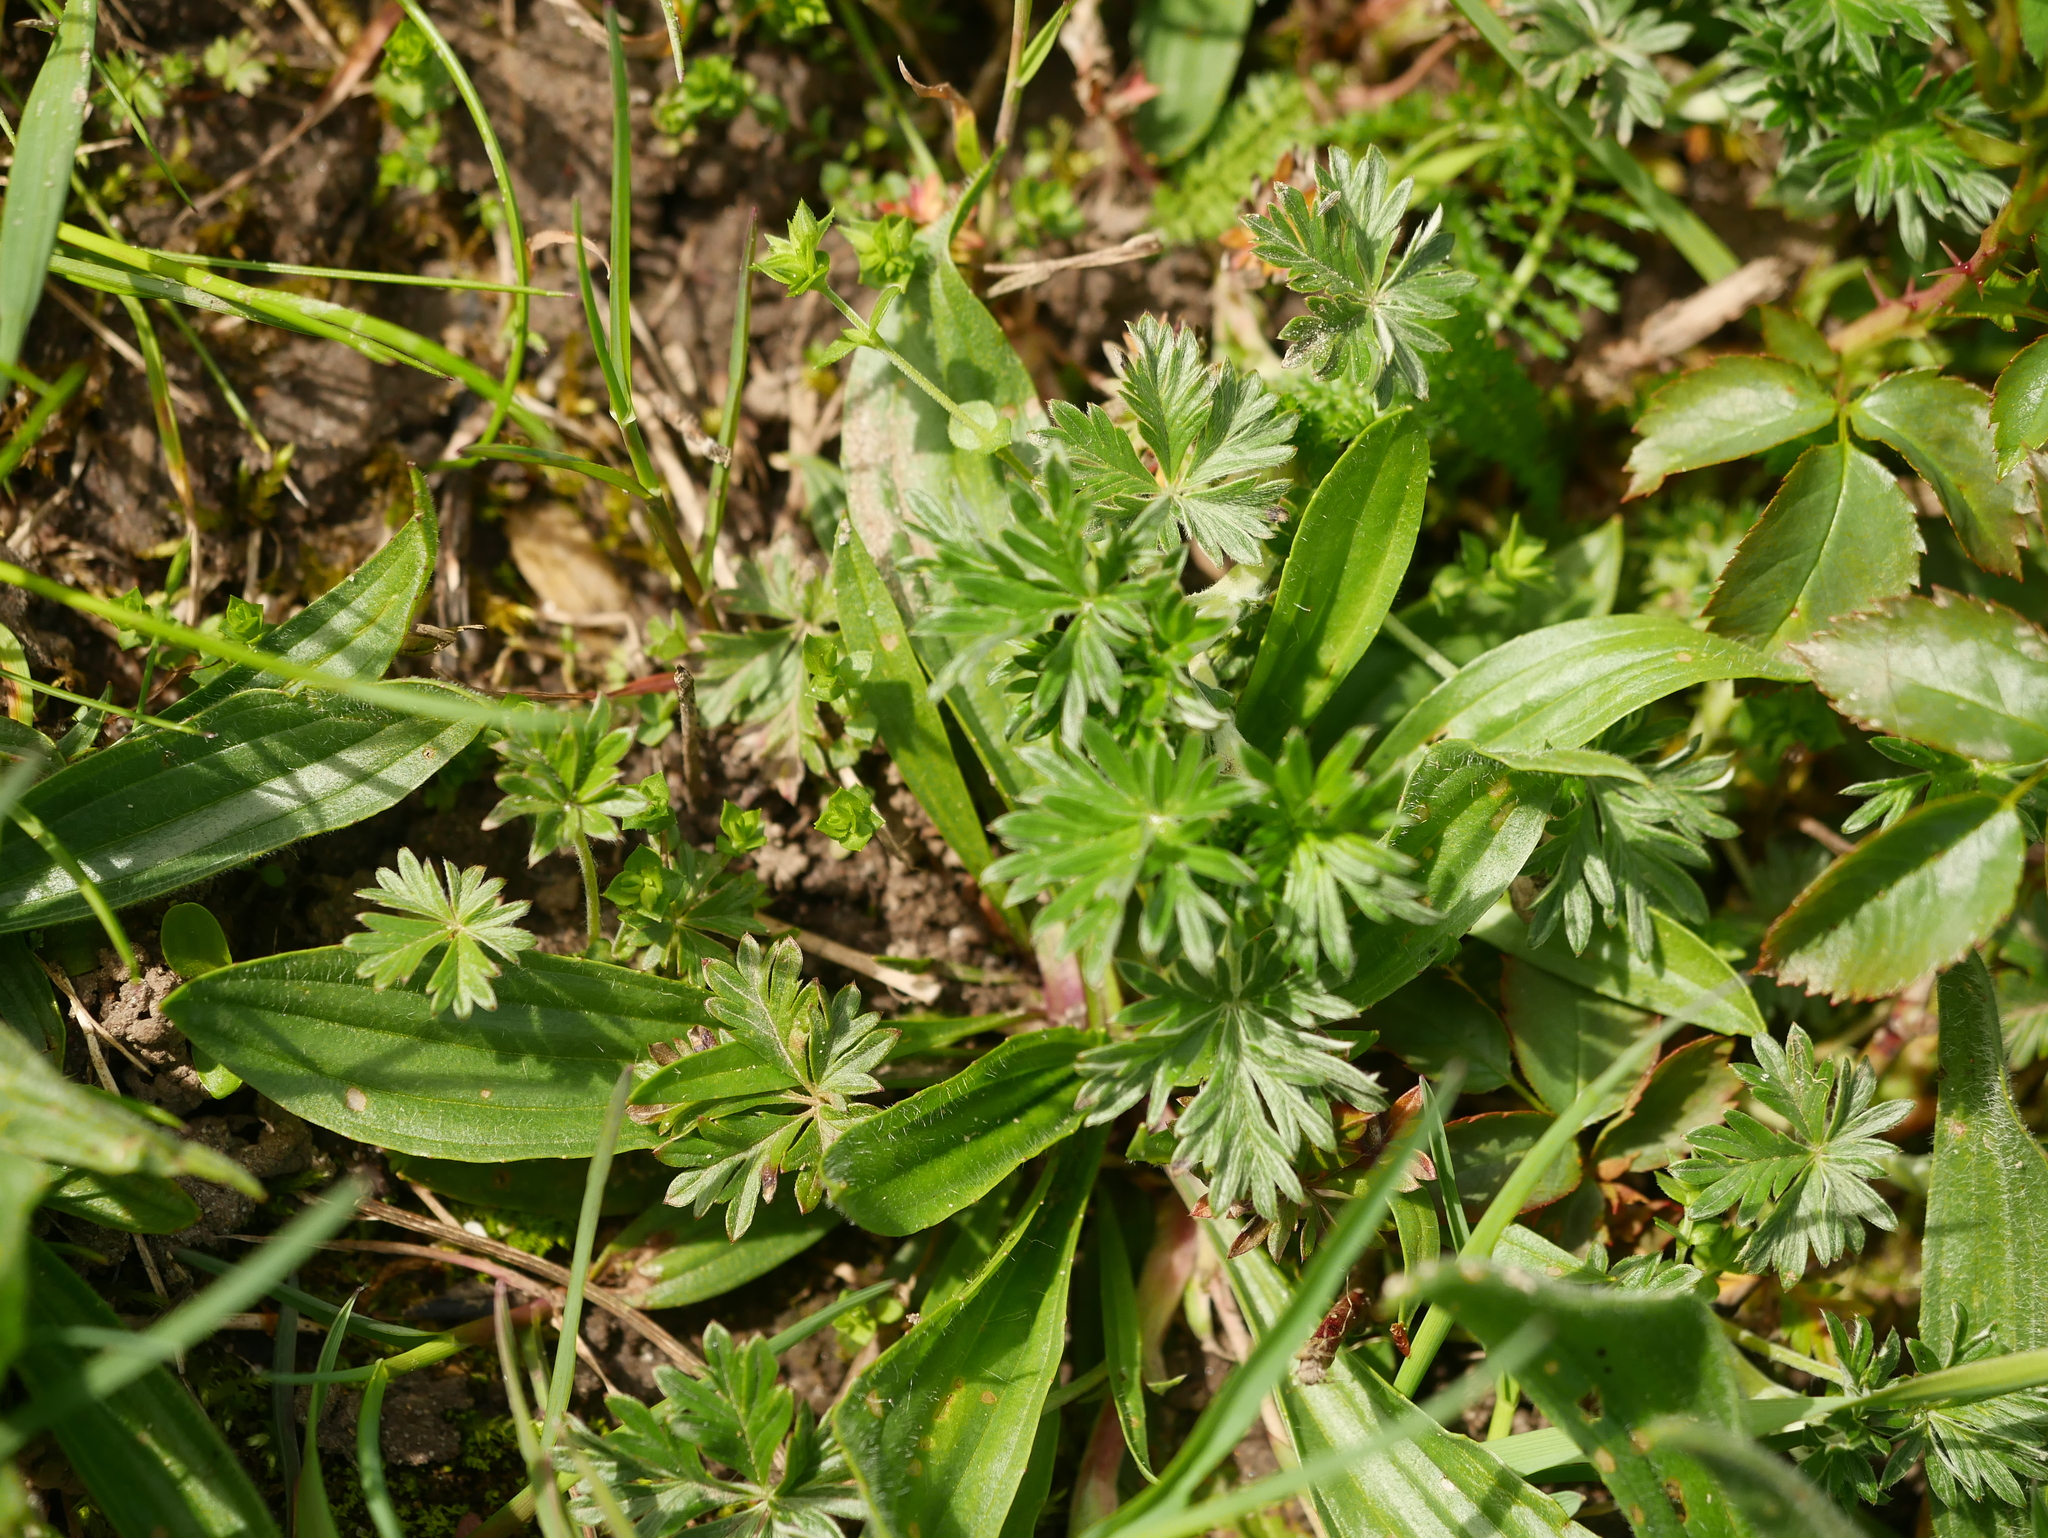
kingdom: Plantae
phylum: Tracheophyta
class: Magnoliopsida
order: Rosales
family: Rosaceae
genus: Potentilla
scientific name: Potentilla argentea
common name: Hoary cinquefoil
